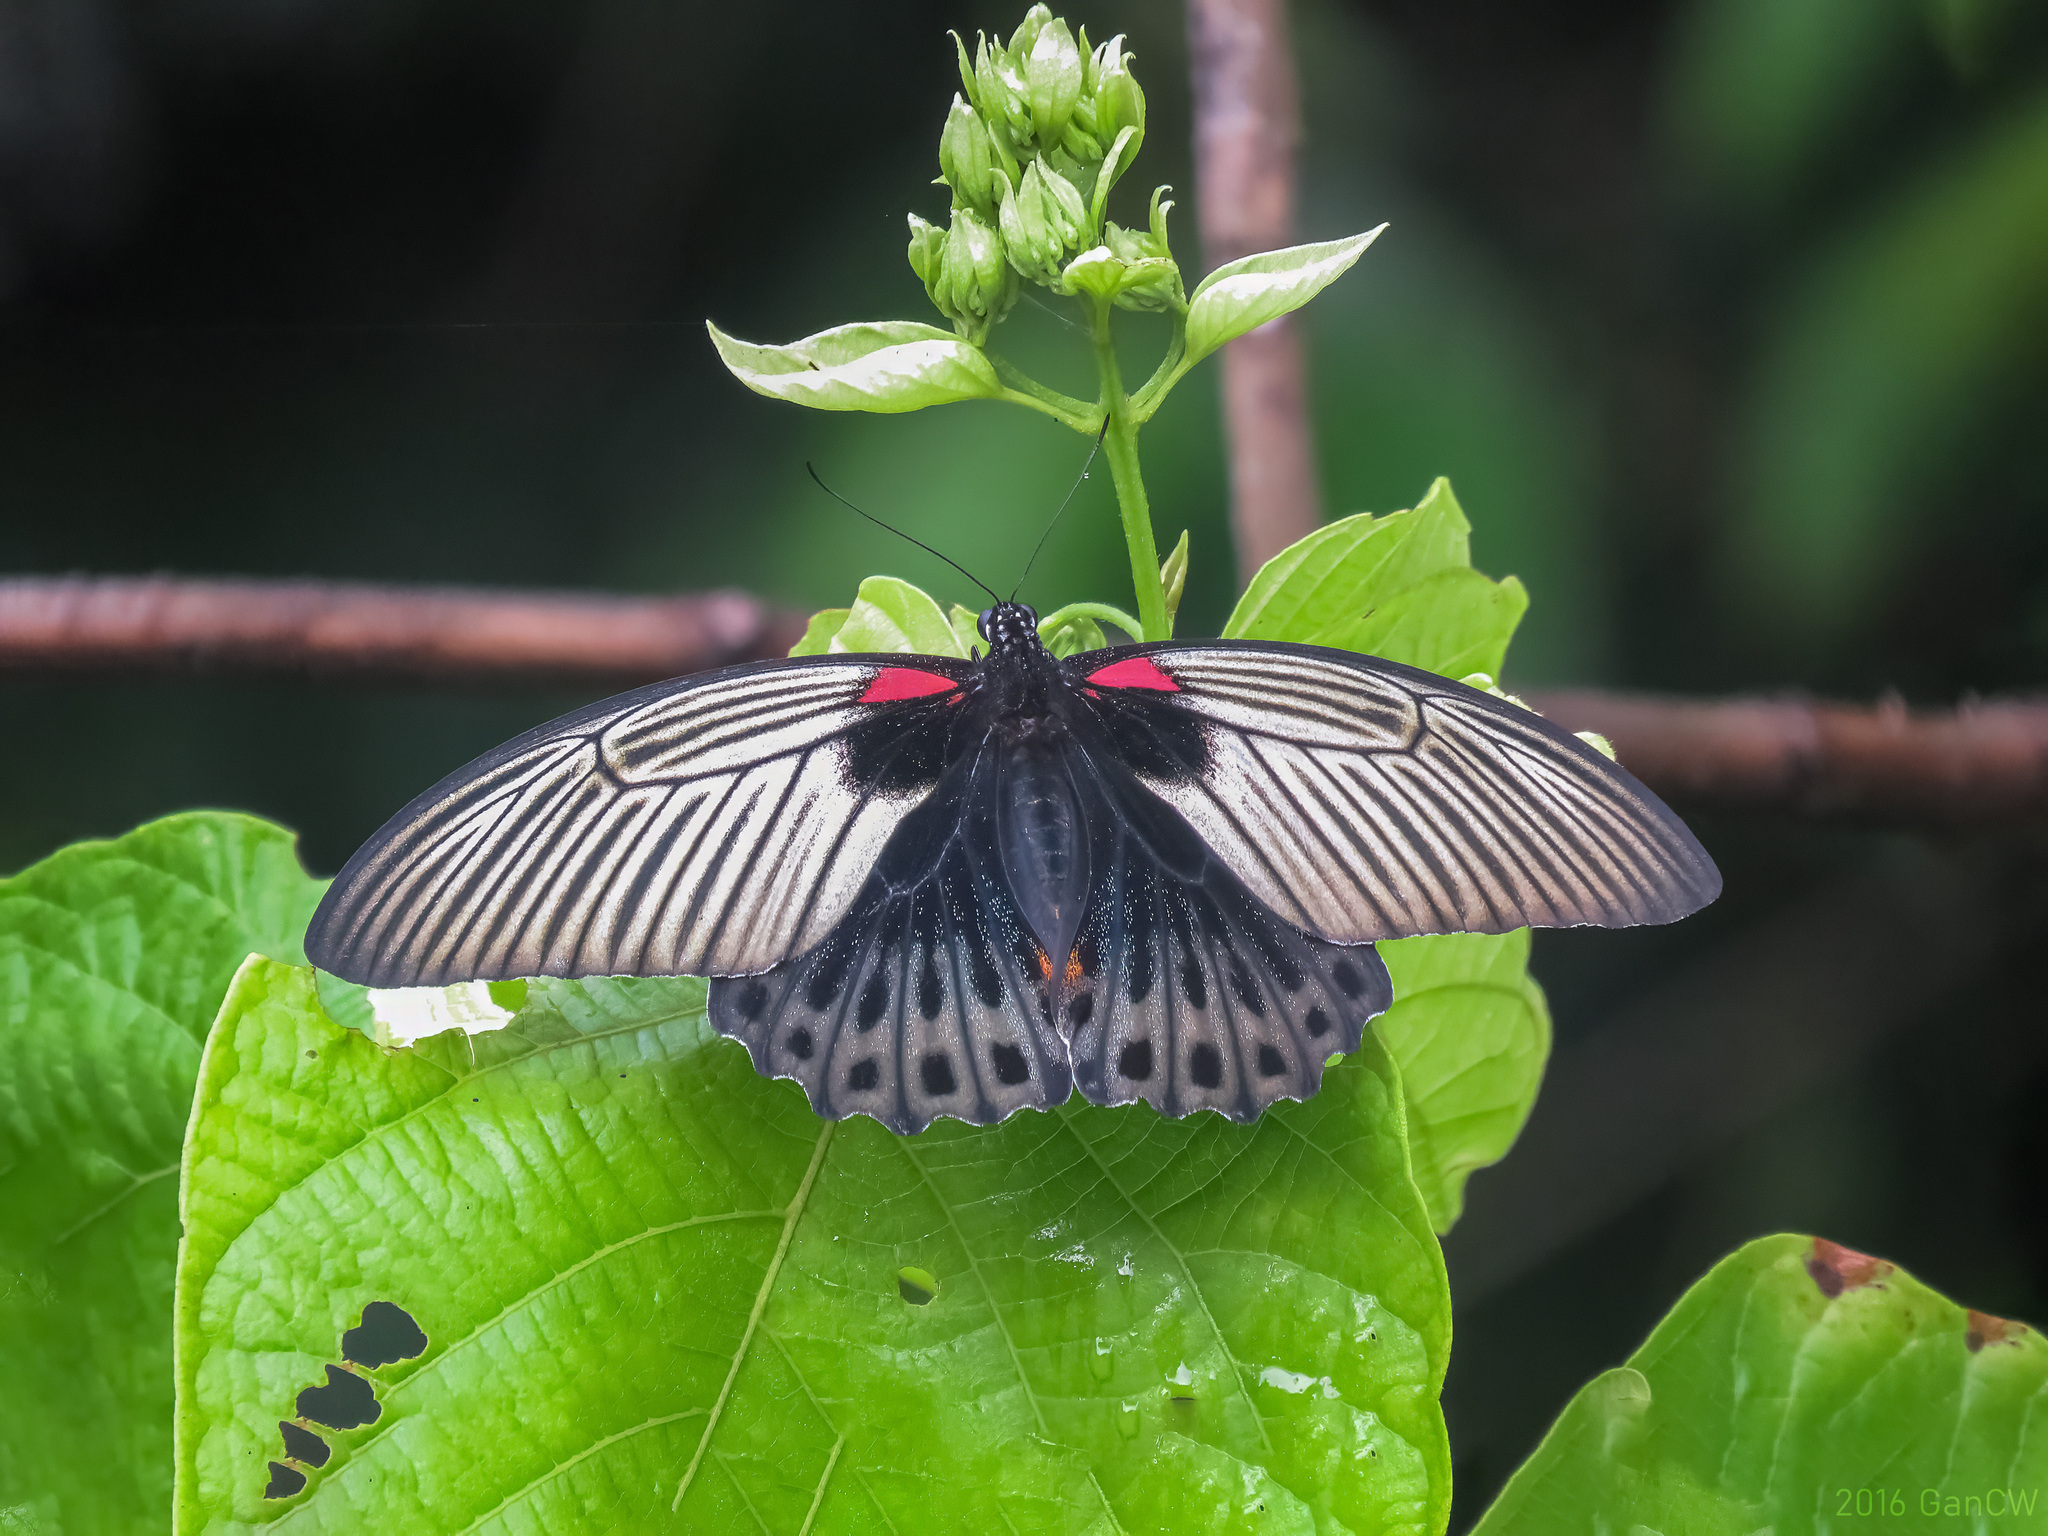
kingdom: Animalia
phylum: Arthropoda
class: Insecta
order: Lepidoptera
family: Papilionidae
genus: Papilio
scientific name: Papilio memnon
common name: Great mormon
